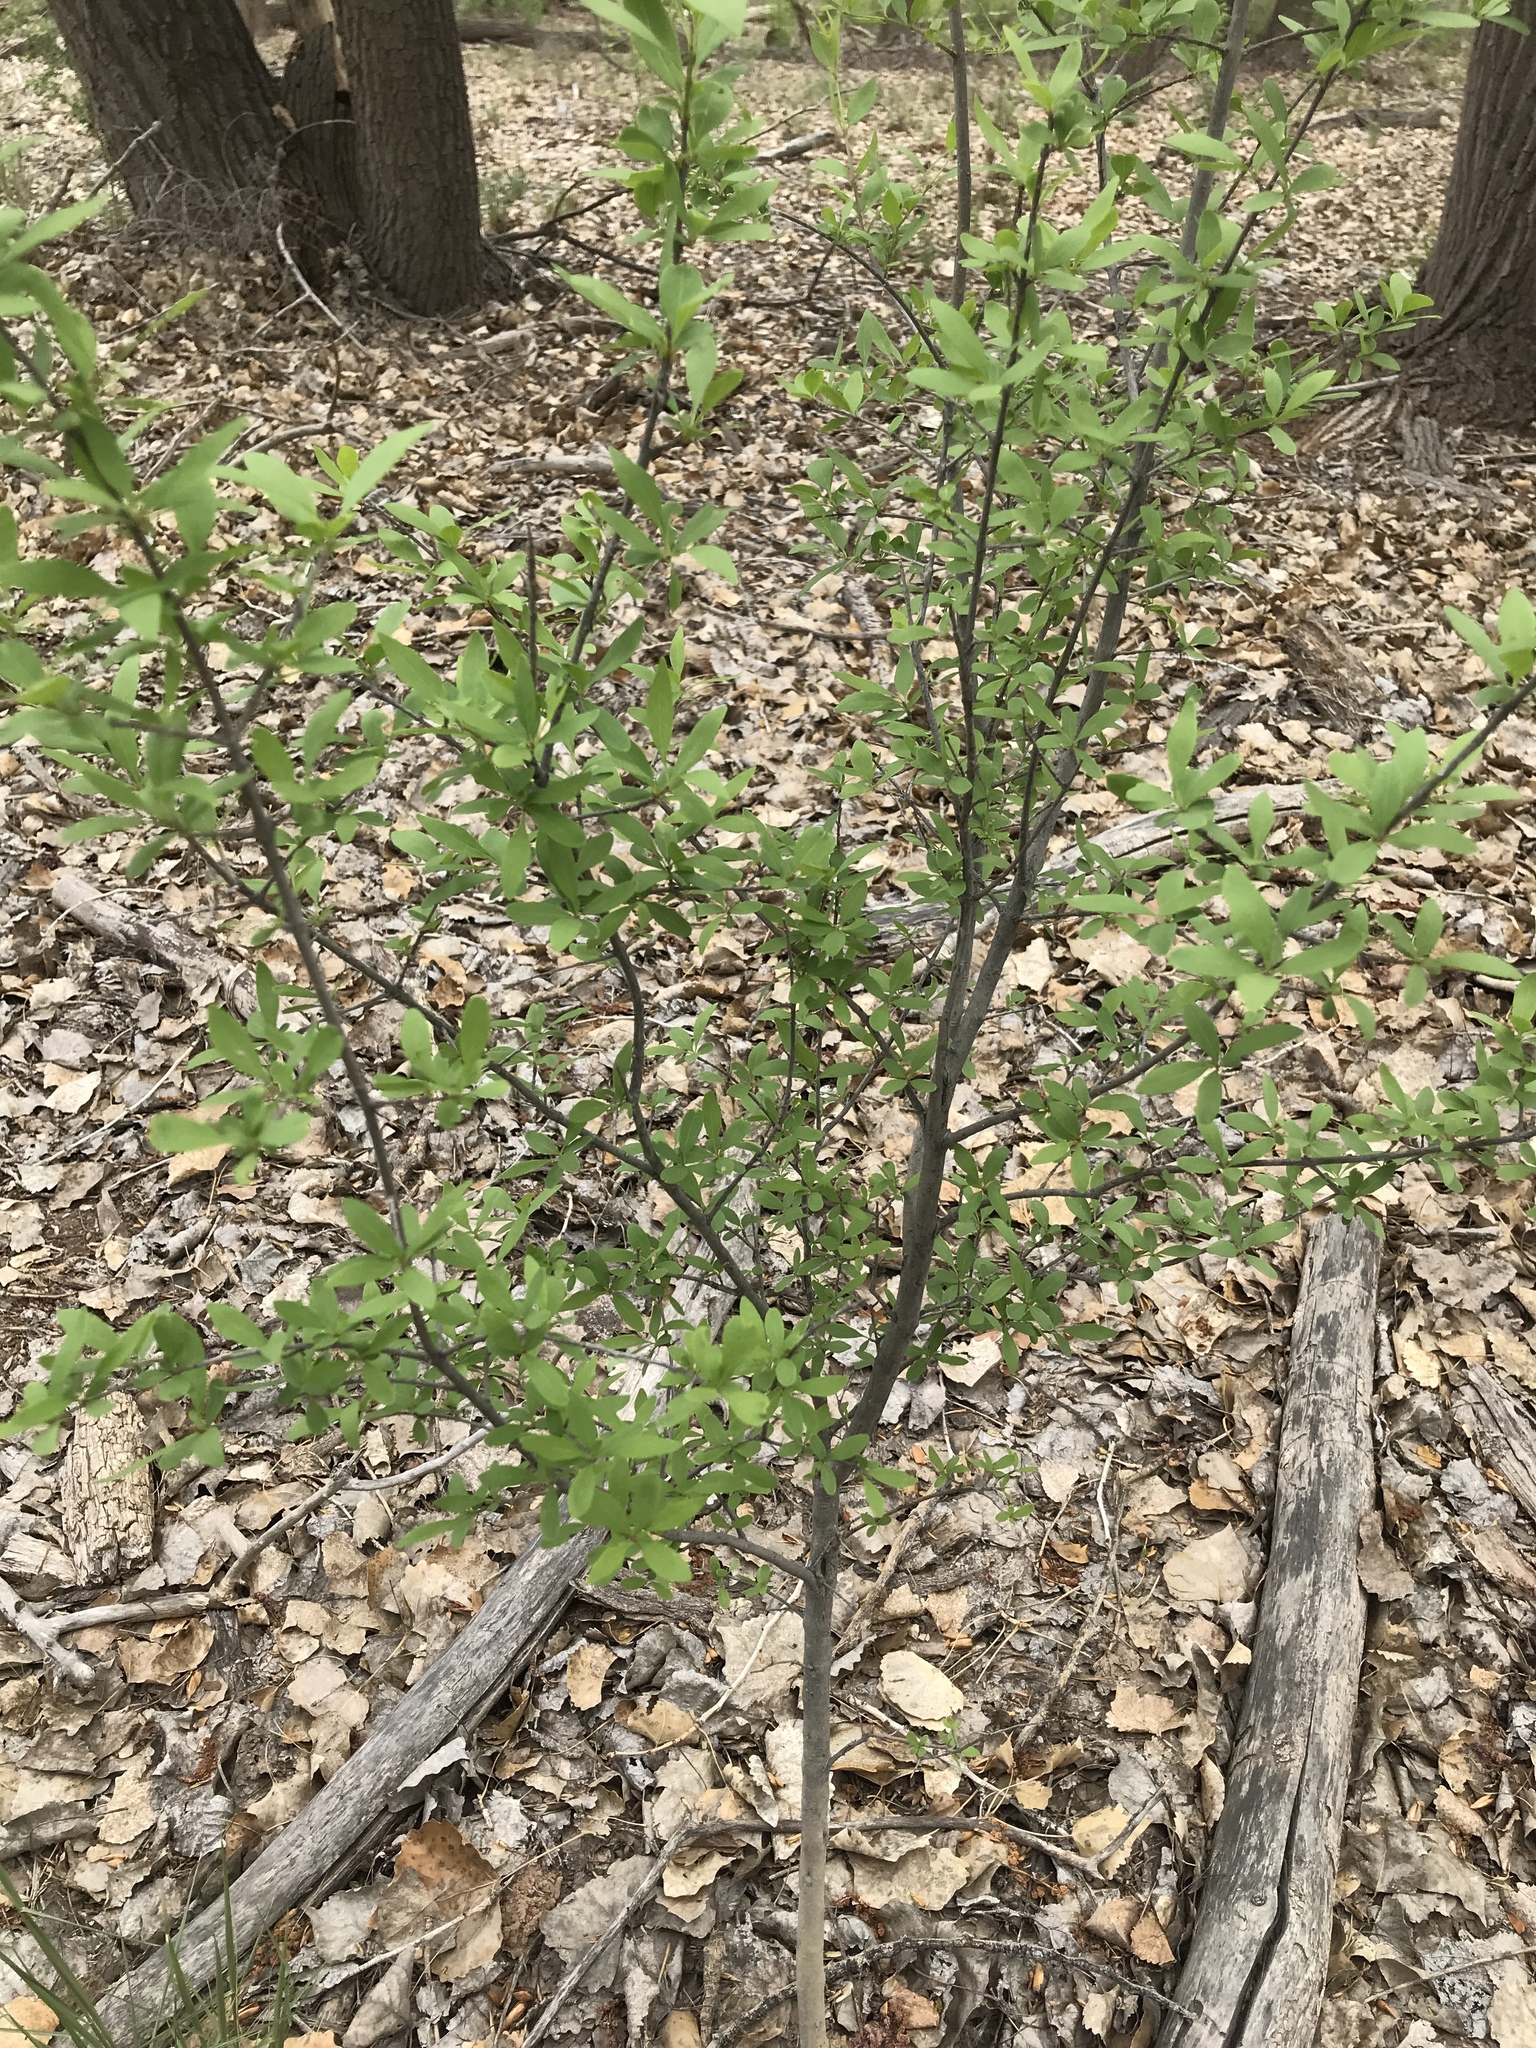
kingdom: Plantae
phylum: Tracheophyta
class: Magnoliopsida
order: Lamiales
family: Oleaceae
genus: Forestiera
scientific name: Forestiera pubescens
